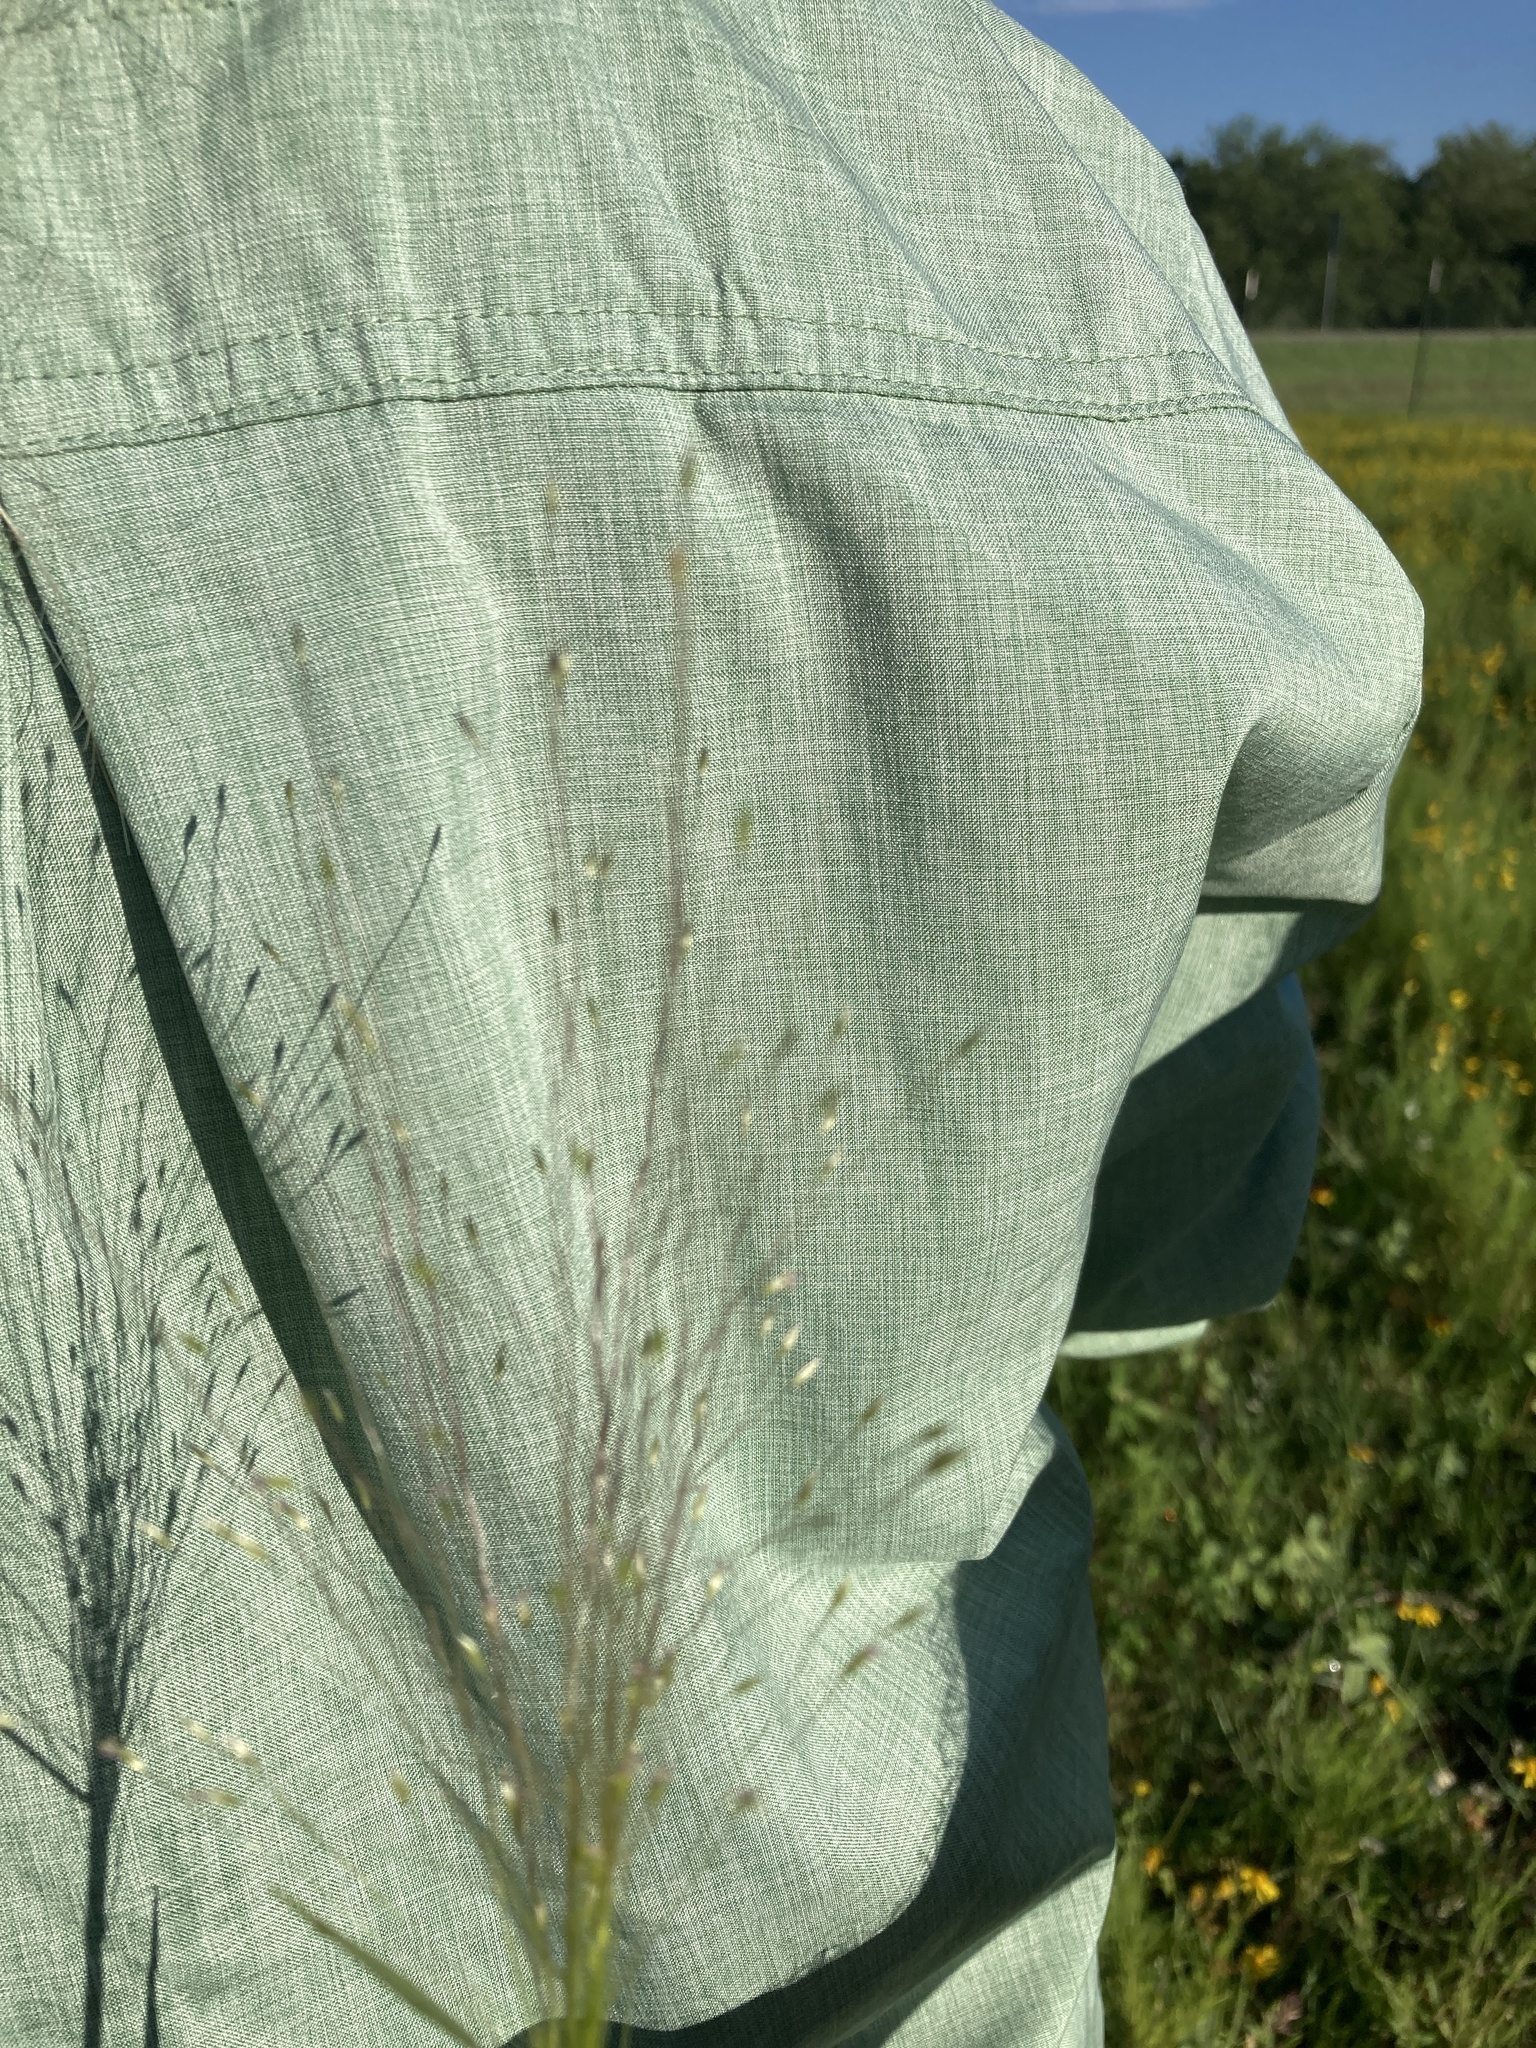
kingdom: Plantae
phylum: Tracheophyta
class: Liliopsida
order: Poales
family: Poaceae
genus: Digitaria
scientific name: Digitaria cognata
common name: Fall witchgrass
